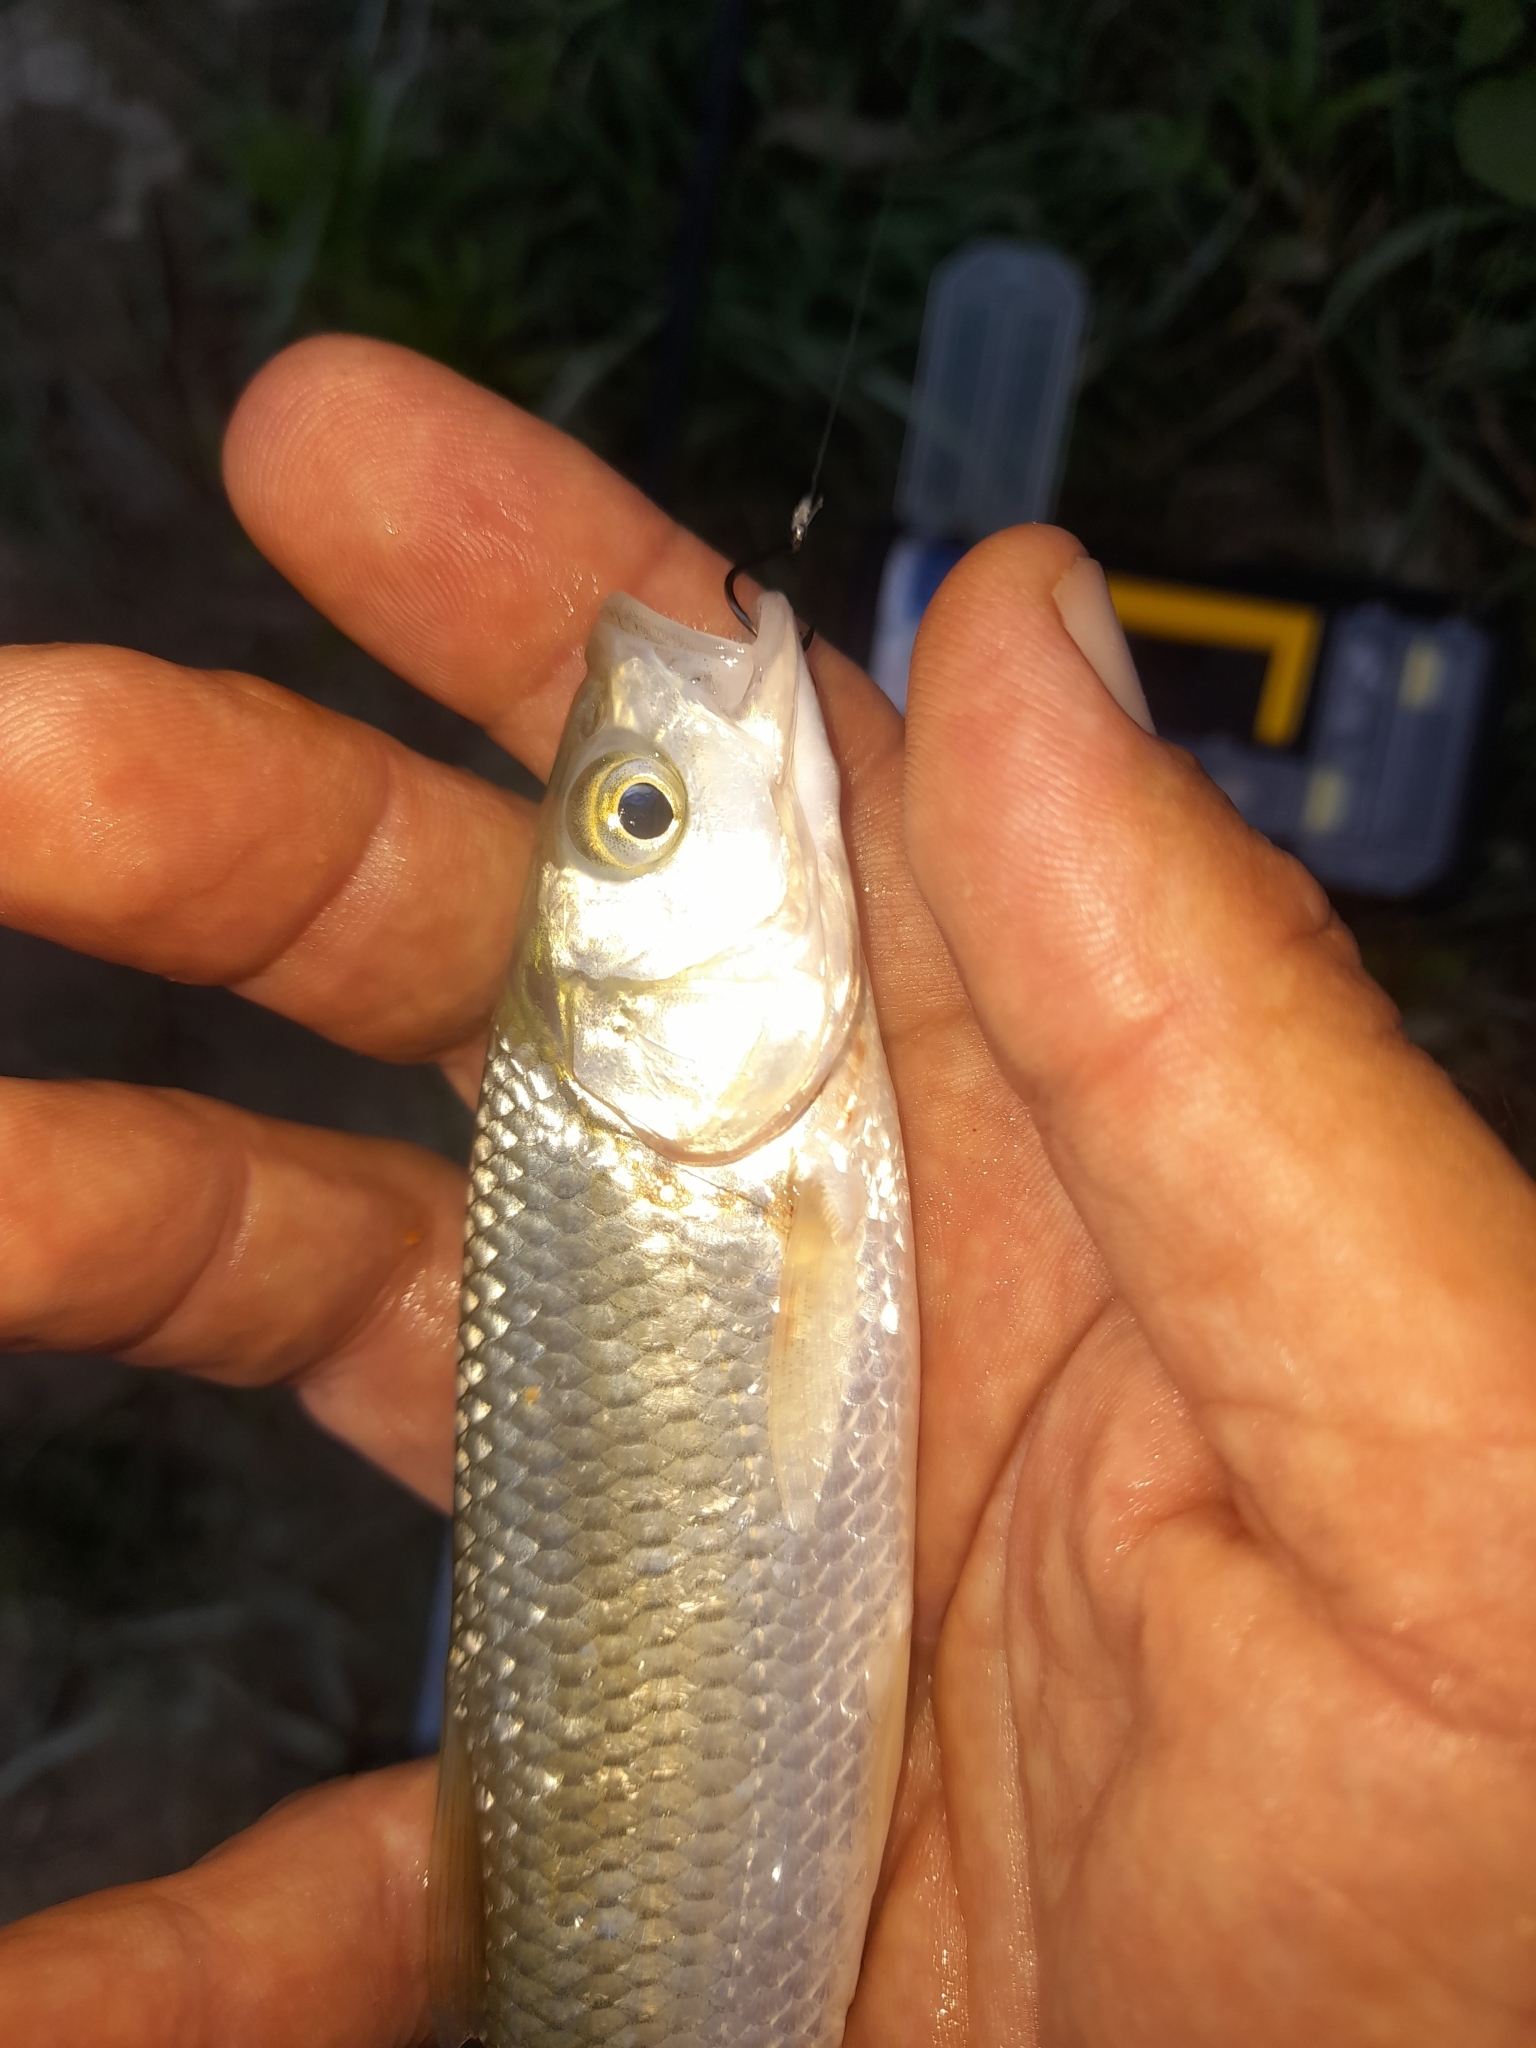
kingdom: Animalia
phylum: Chordata
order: Cypriniformes
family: Cyprinidae
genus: Squalius
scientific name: Squalius squalus
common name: Italian chub
